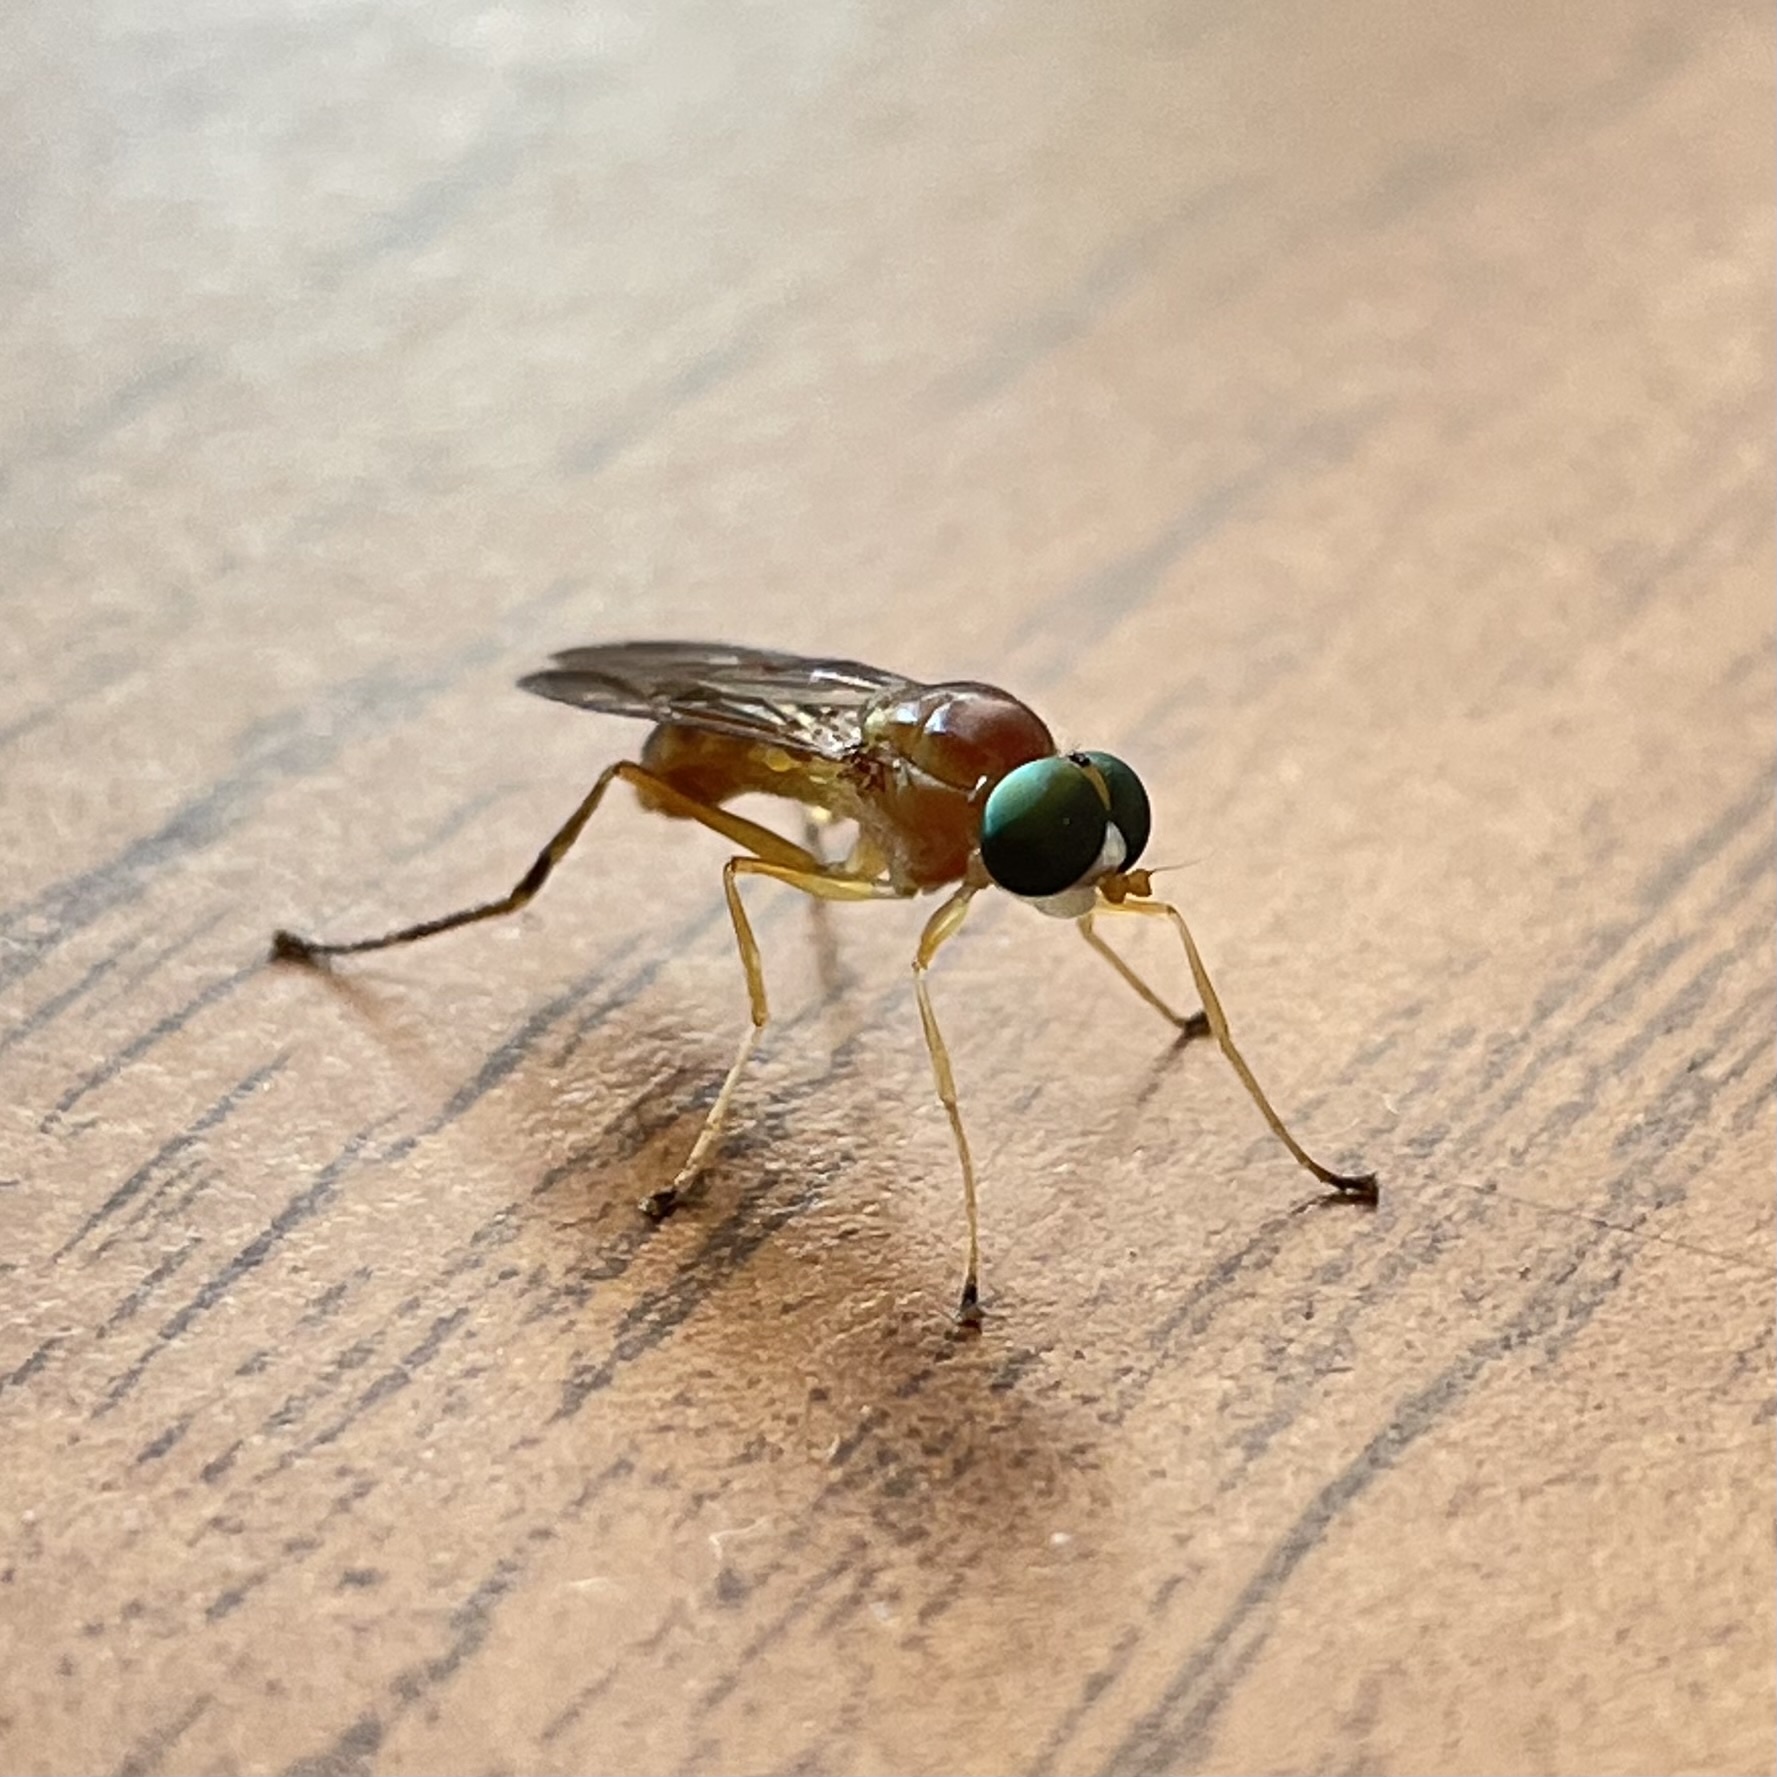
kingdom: Animalia
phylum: Arthropoda
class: Insecta
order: Diptera
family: Stratiomyidae
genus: Ptecticus
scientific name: Ptecticus trivittatus
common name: Compost fly
